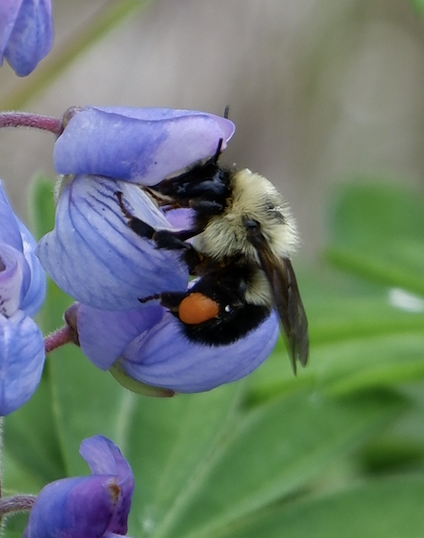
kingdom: Animalia
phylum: Arthropoda
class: Insecta
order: Hymenoptera
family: Apidae
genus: Bombus
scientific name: Bombus bimaculatus
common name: Two-spotted bumble bee
